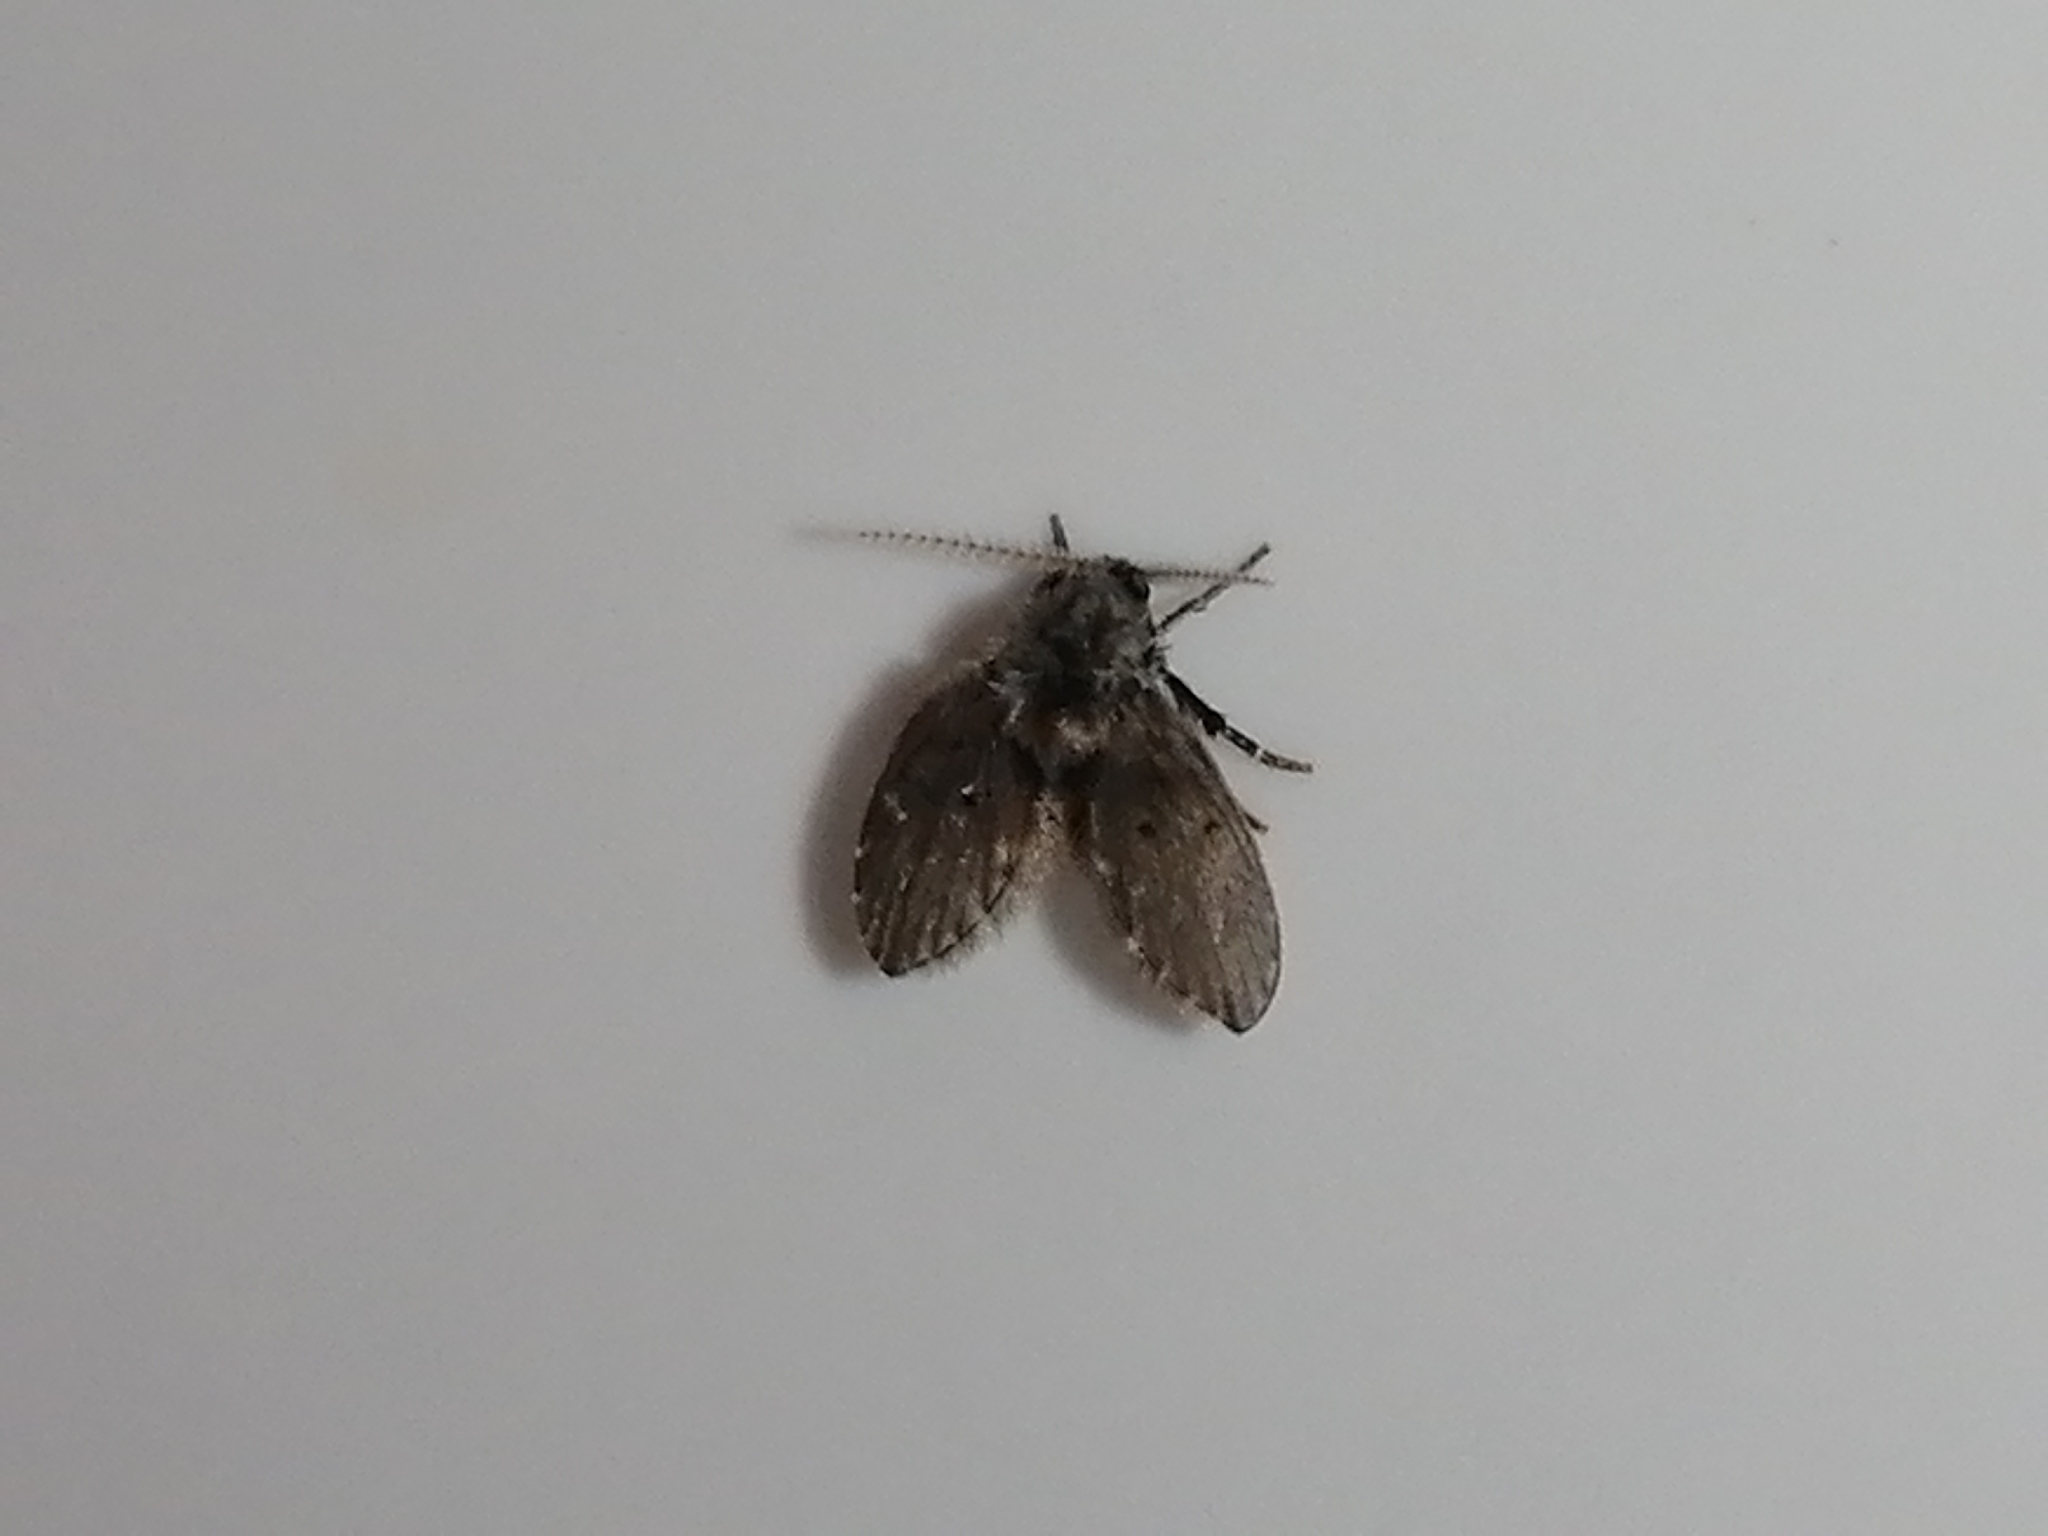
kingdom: Animalia
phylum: Arthropoda
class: Insecta
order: Diptera
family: Psychodidae
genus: Clogmia
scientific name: Clogmia albipunctatus
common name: White-spotted moth fly
